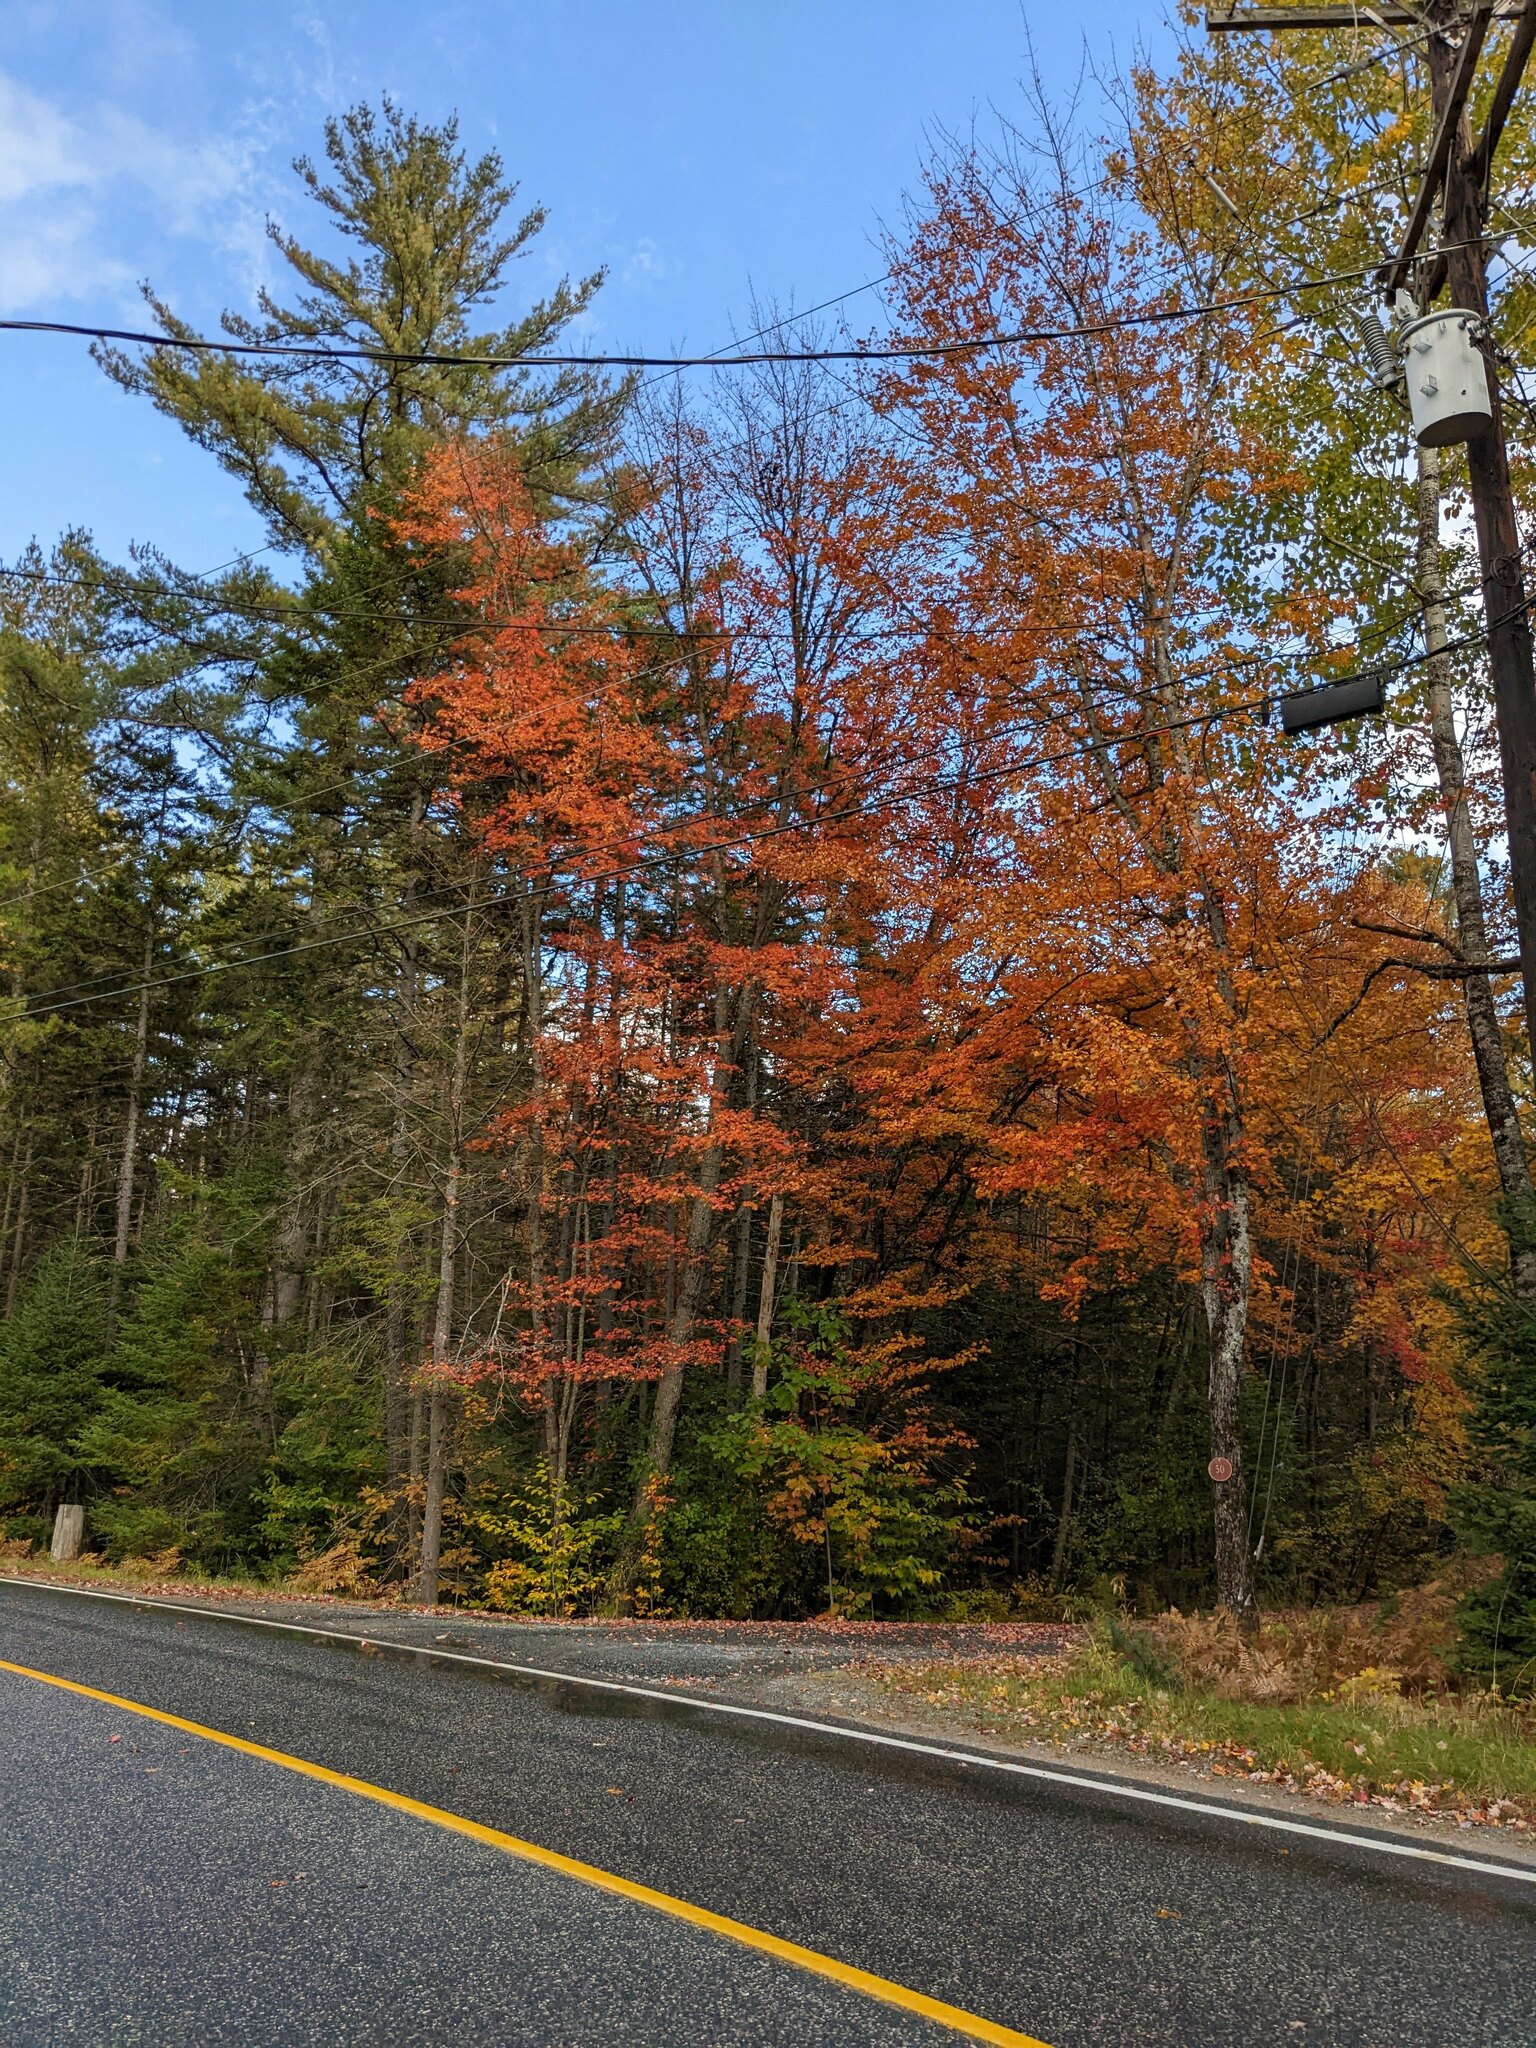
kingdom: Plantae
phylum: Tracheophyta
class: Pinopsida
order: Pinales
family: Pinaceae
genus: Pinus
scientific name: Pinus strobus
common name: Weymouth pine
